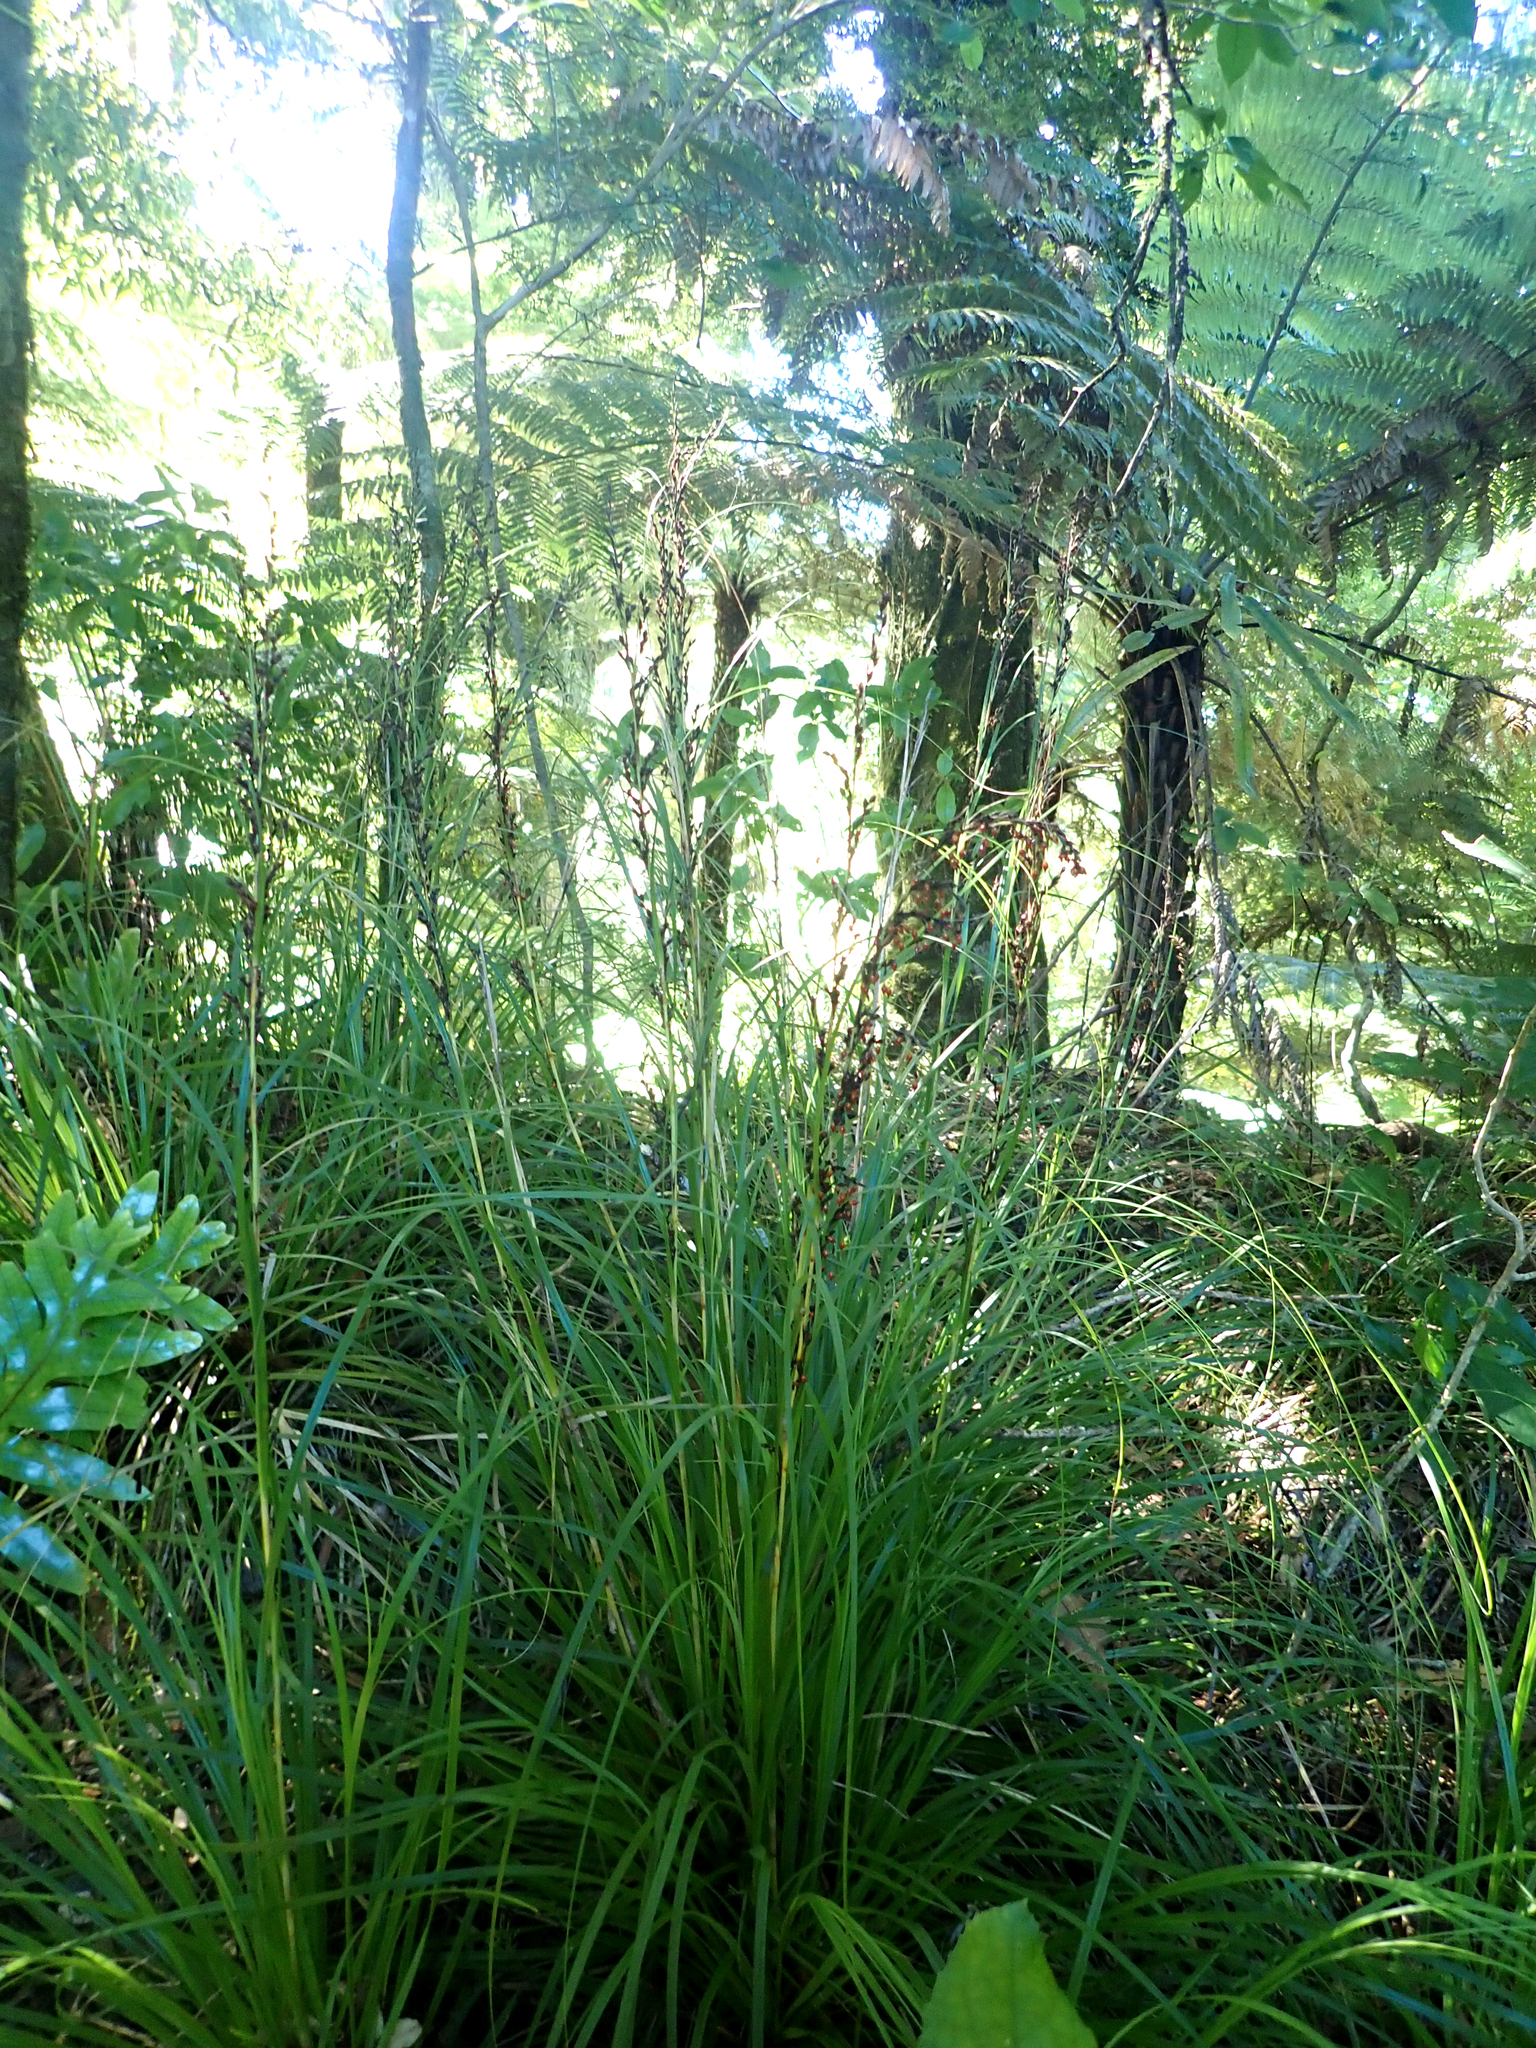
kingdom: Plantae
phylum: Tracheophyta
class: Liliopsida
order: Poales
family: Cyperaceae
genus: Gahnia
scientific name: Gahnia pauciflora
